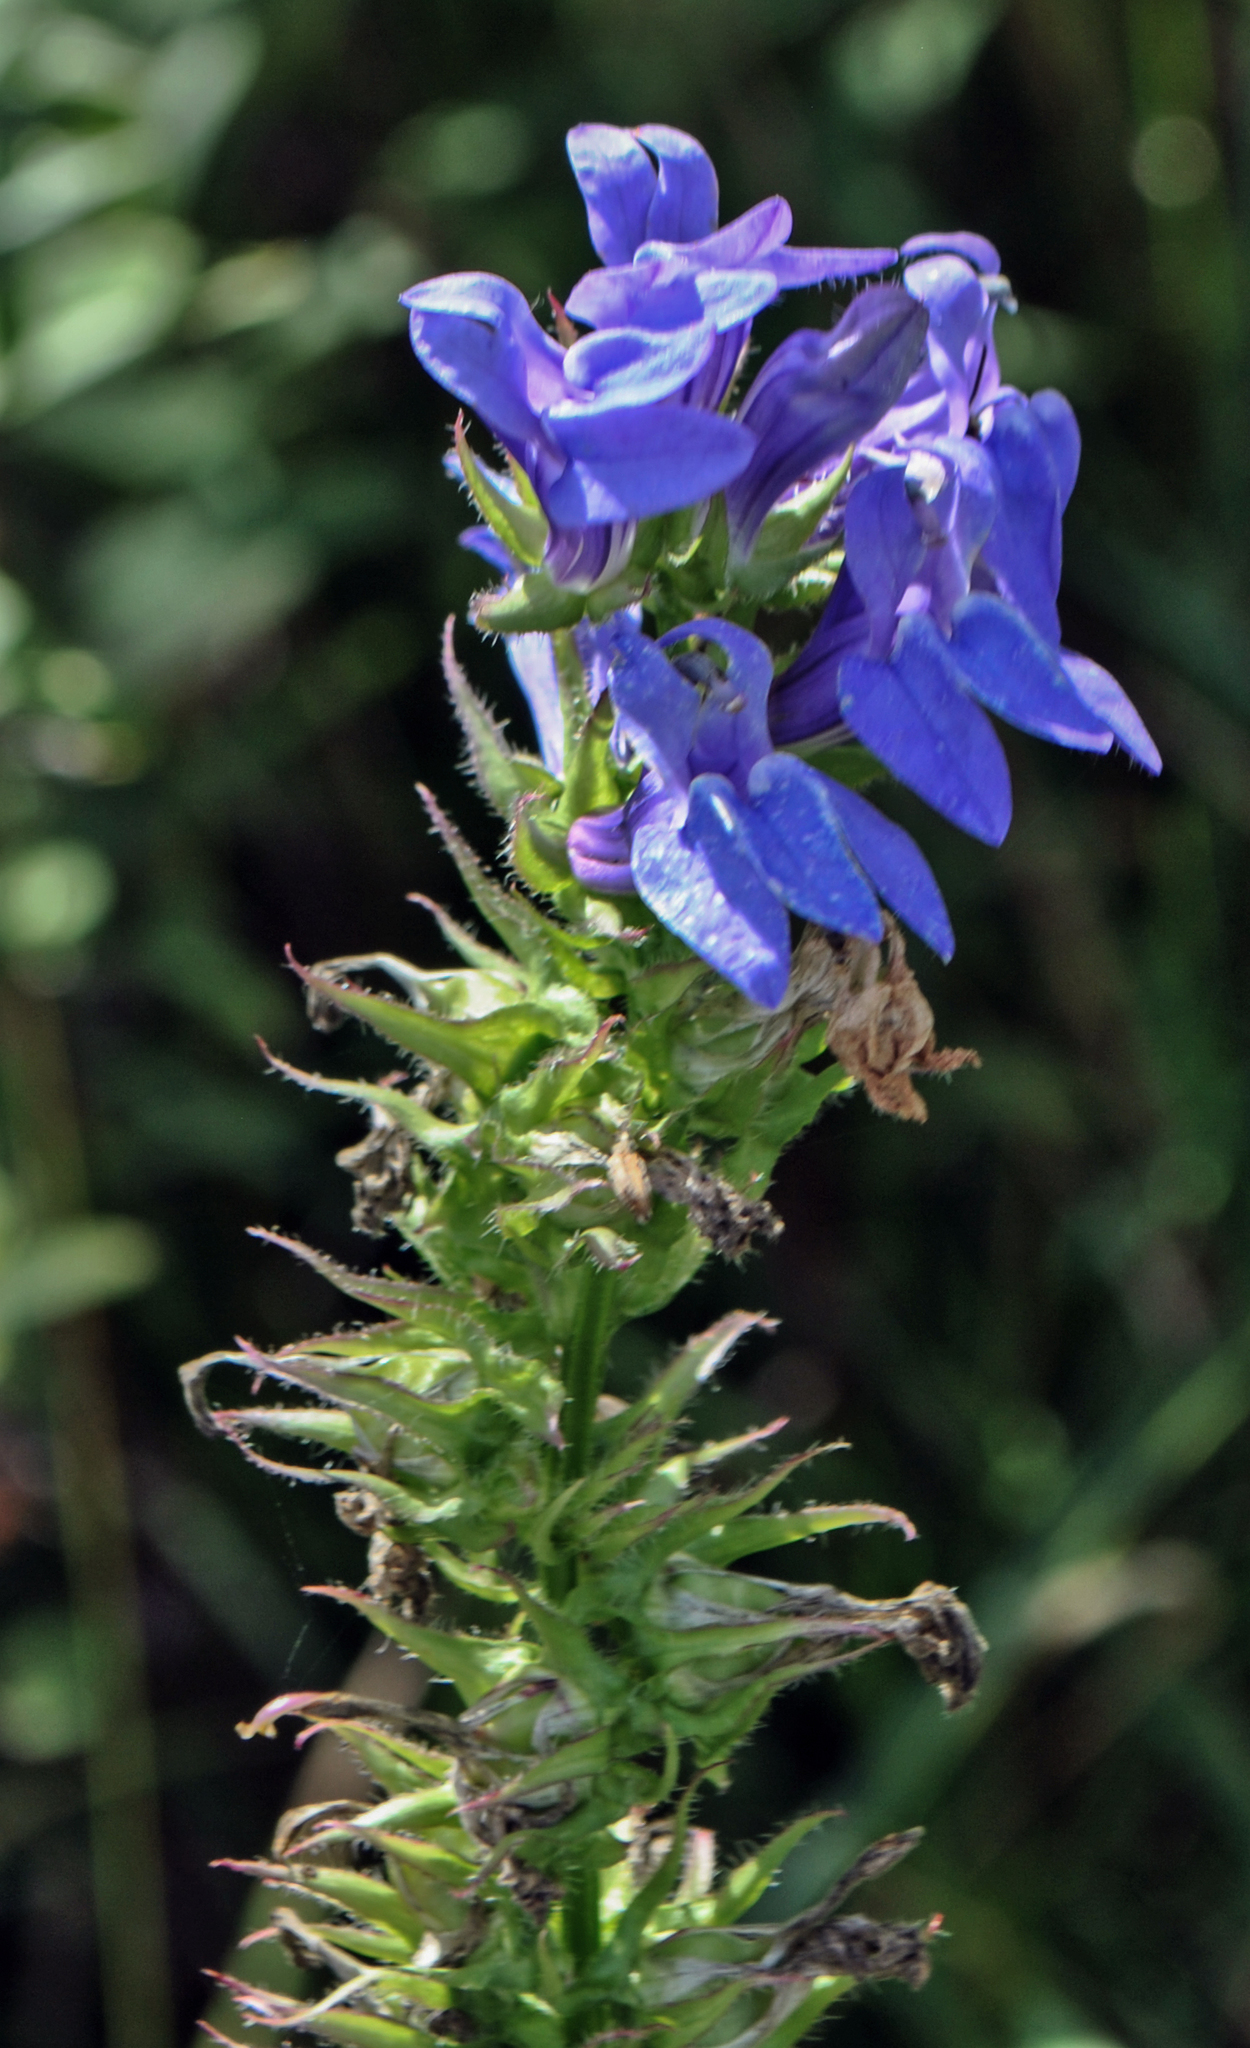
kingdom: Plantae
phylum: Tracheophyta
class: Magnoliopsida
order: Asterales
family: Campanulaceae
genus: Lobelia
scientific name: Lobelia siphilitica
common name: Great lobelia
